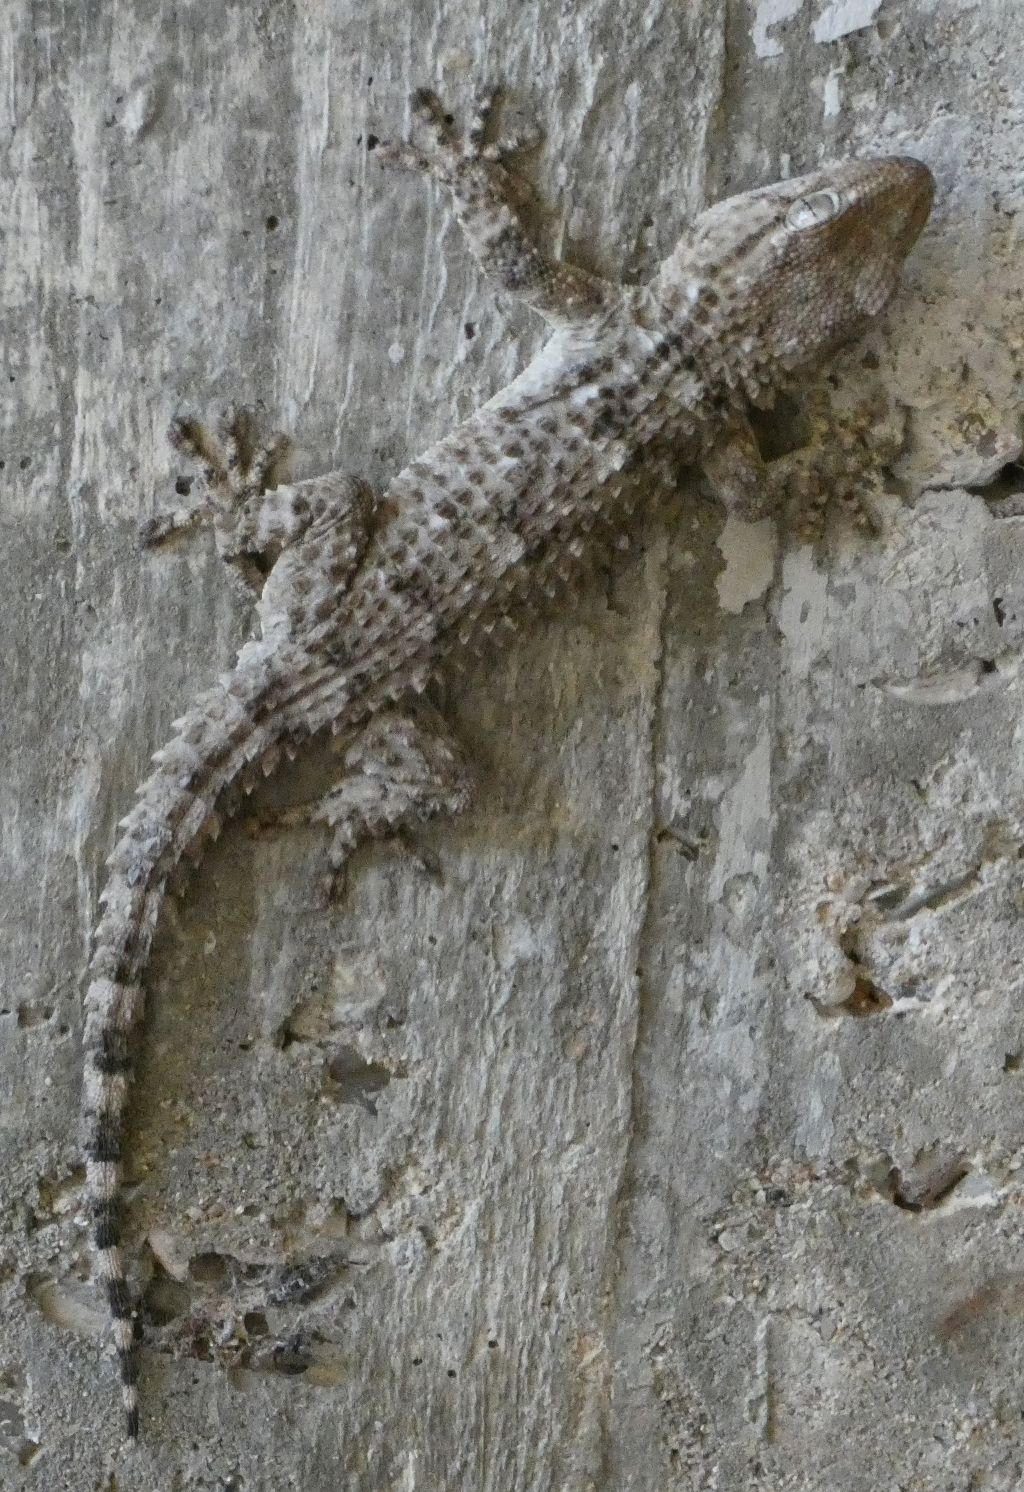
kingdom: Animalia
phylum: Chordata
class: Squamata
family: Phyllodactylidae
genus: Tarentola
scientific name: Tarentola mauritanica
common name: Moorish gecko
